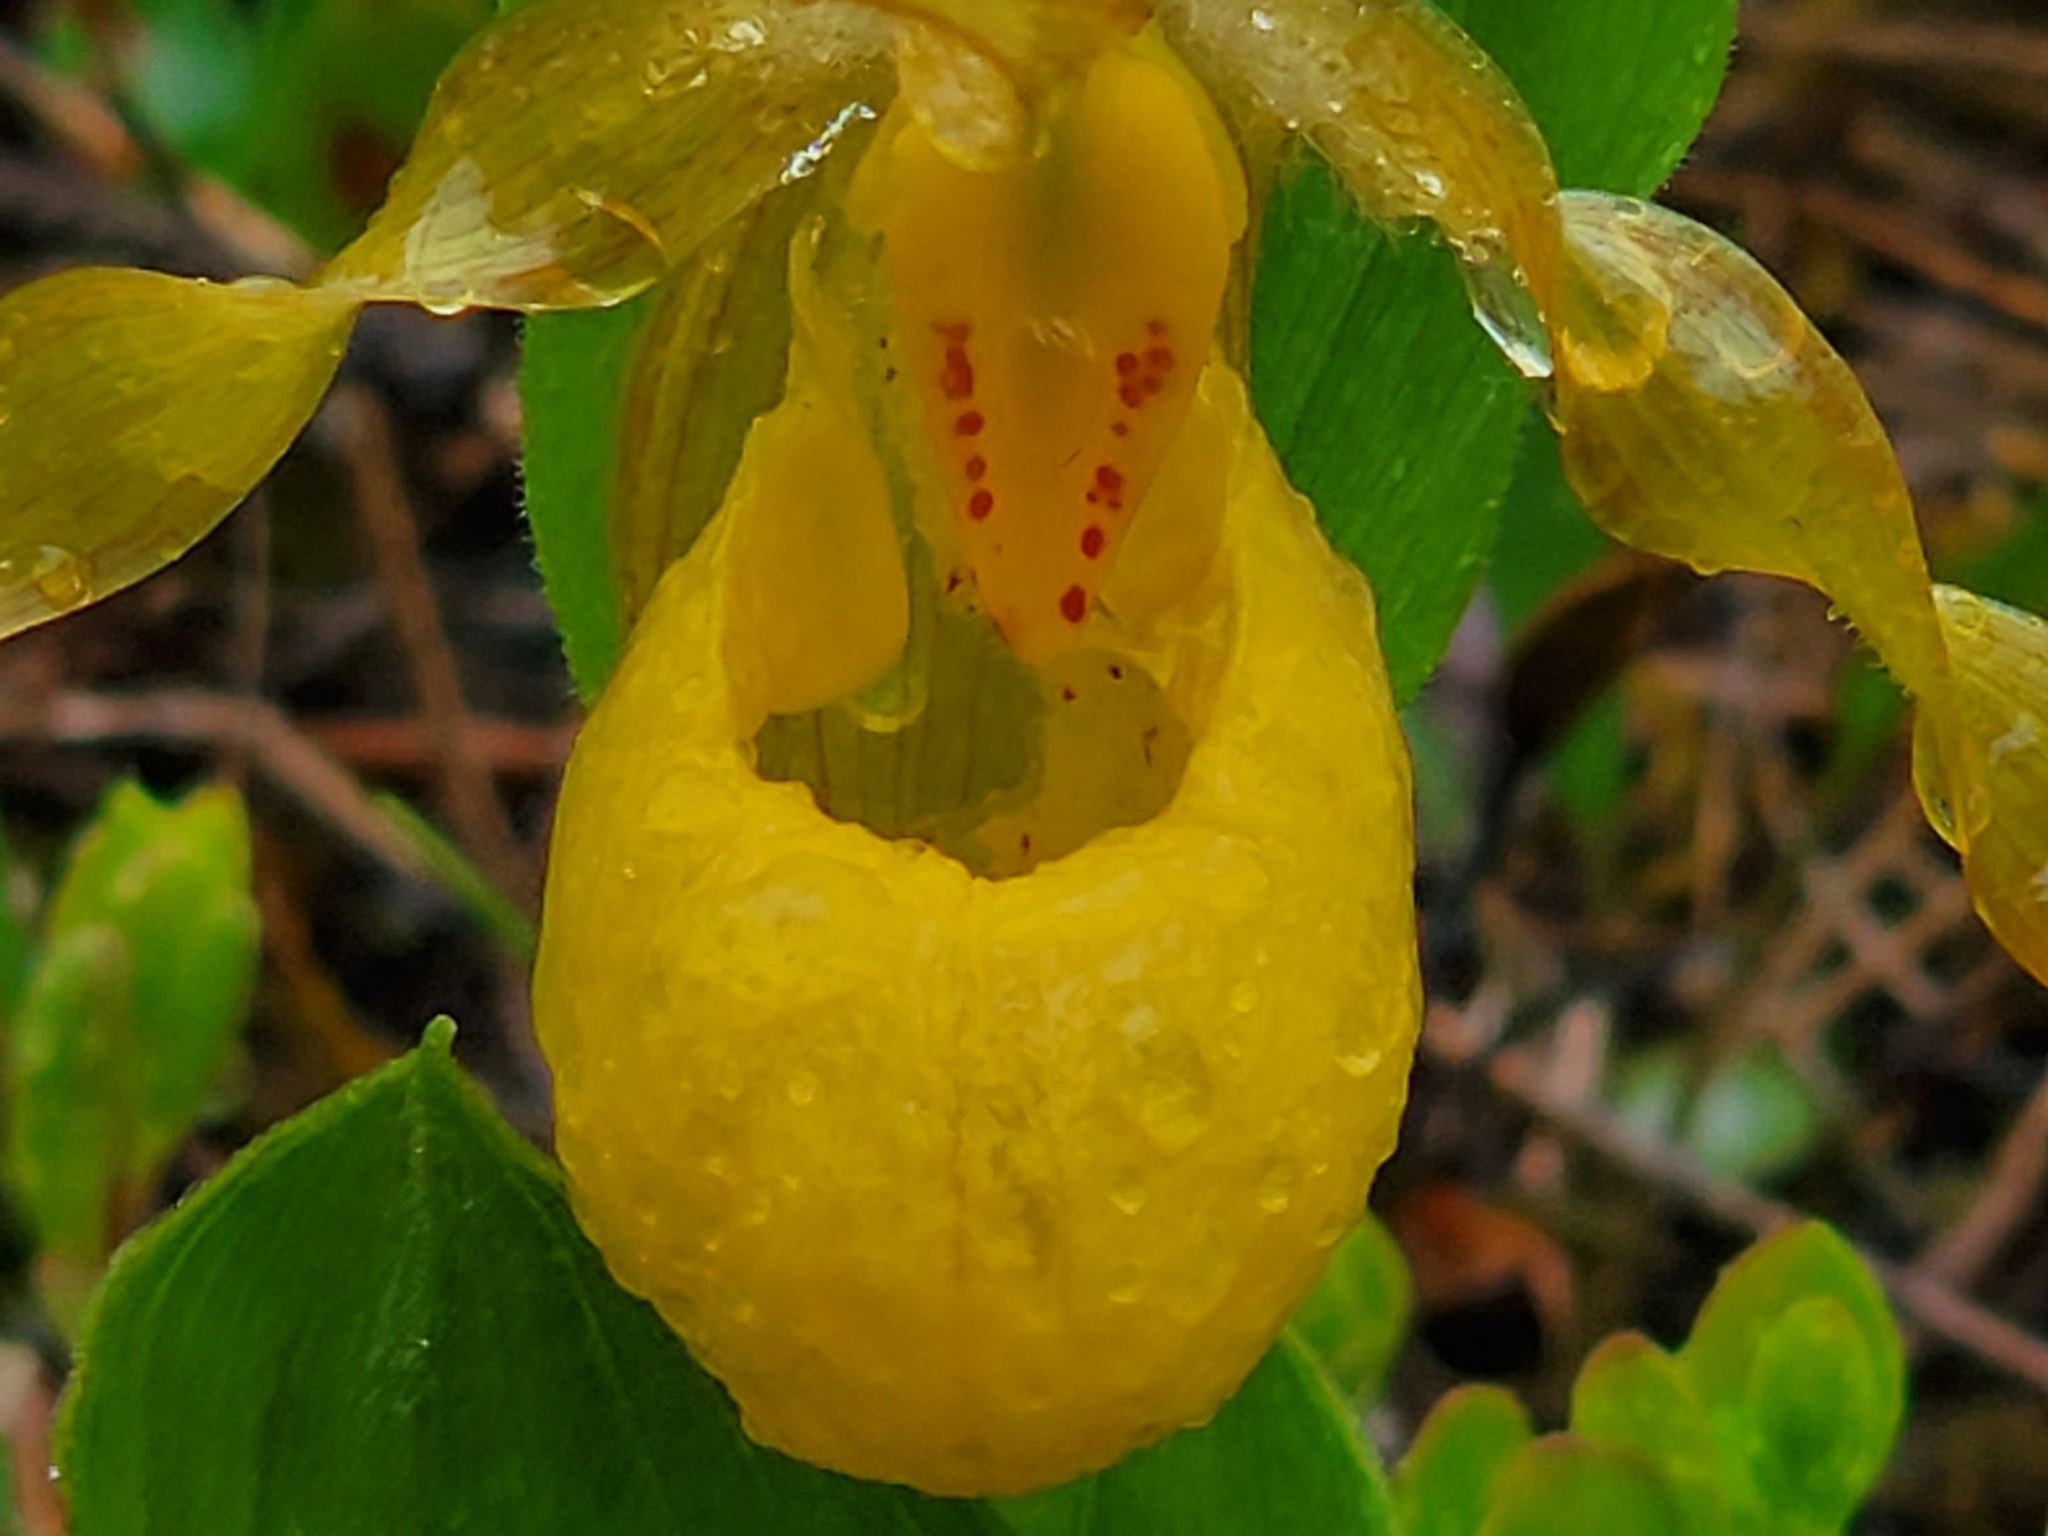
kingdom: Plantae
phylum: Tracheophyta
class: Liliopsida
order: Asparagales
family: Orchidaceae
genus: Cypripedium
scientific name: Cypripedium parviflorum
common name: American yellow lady's-slipper
